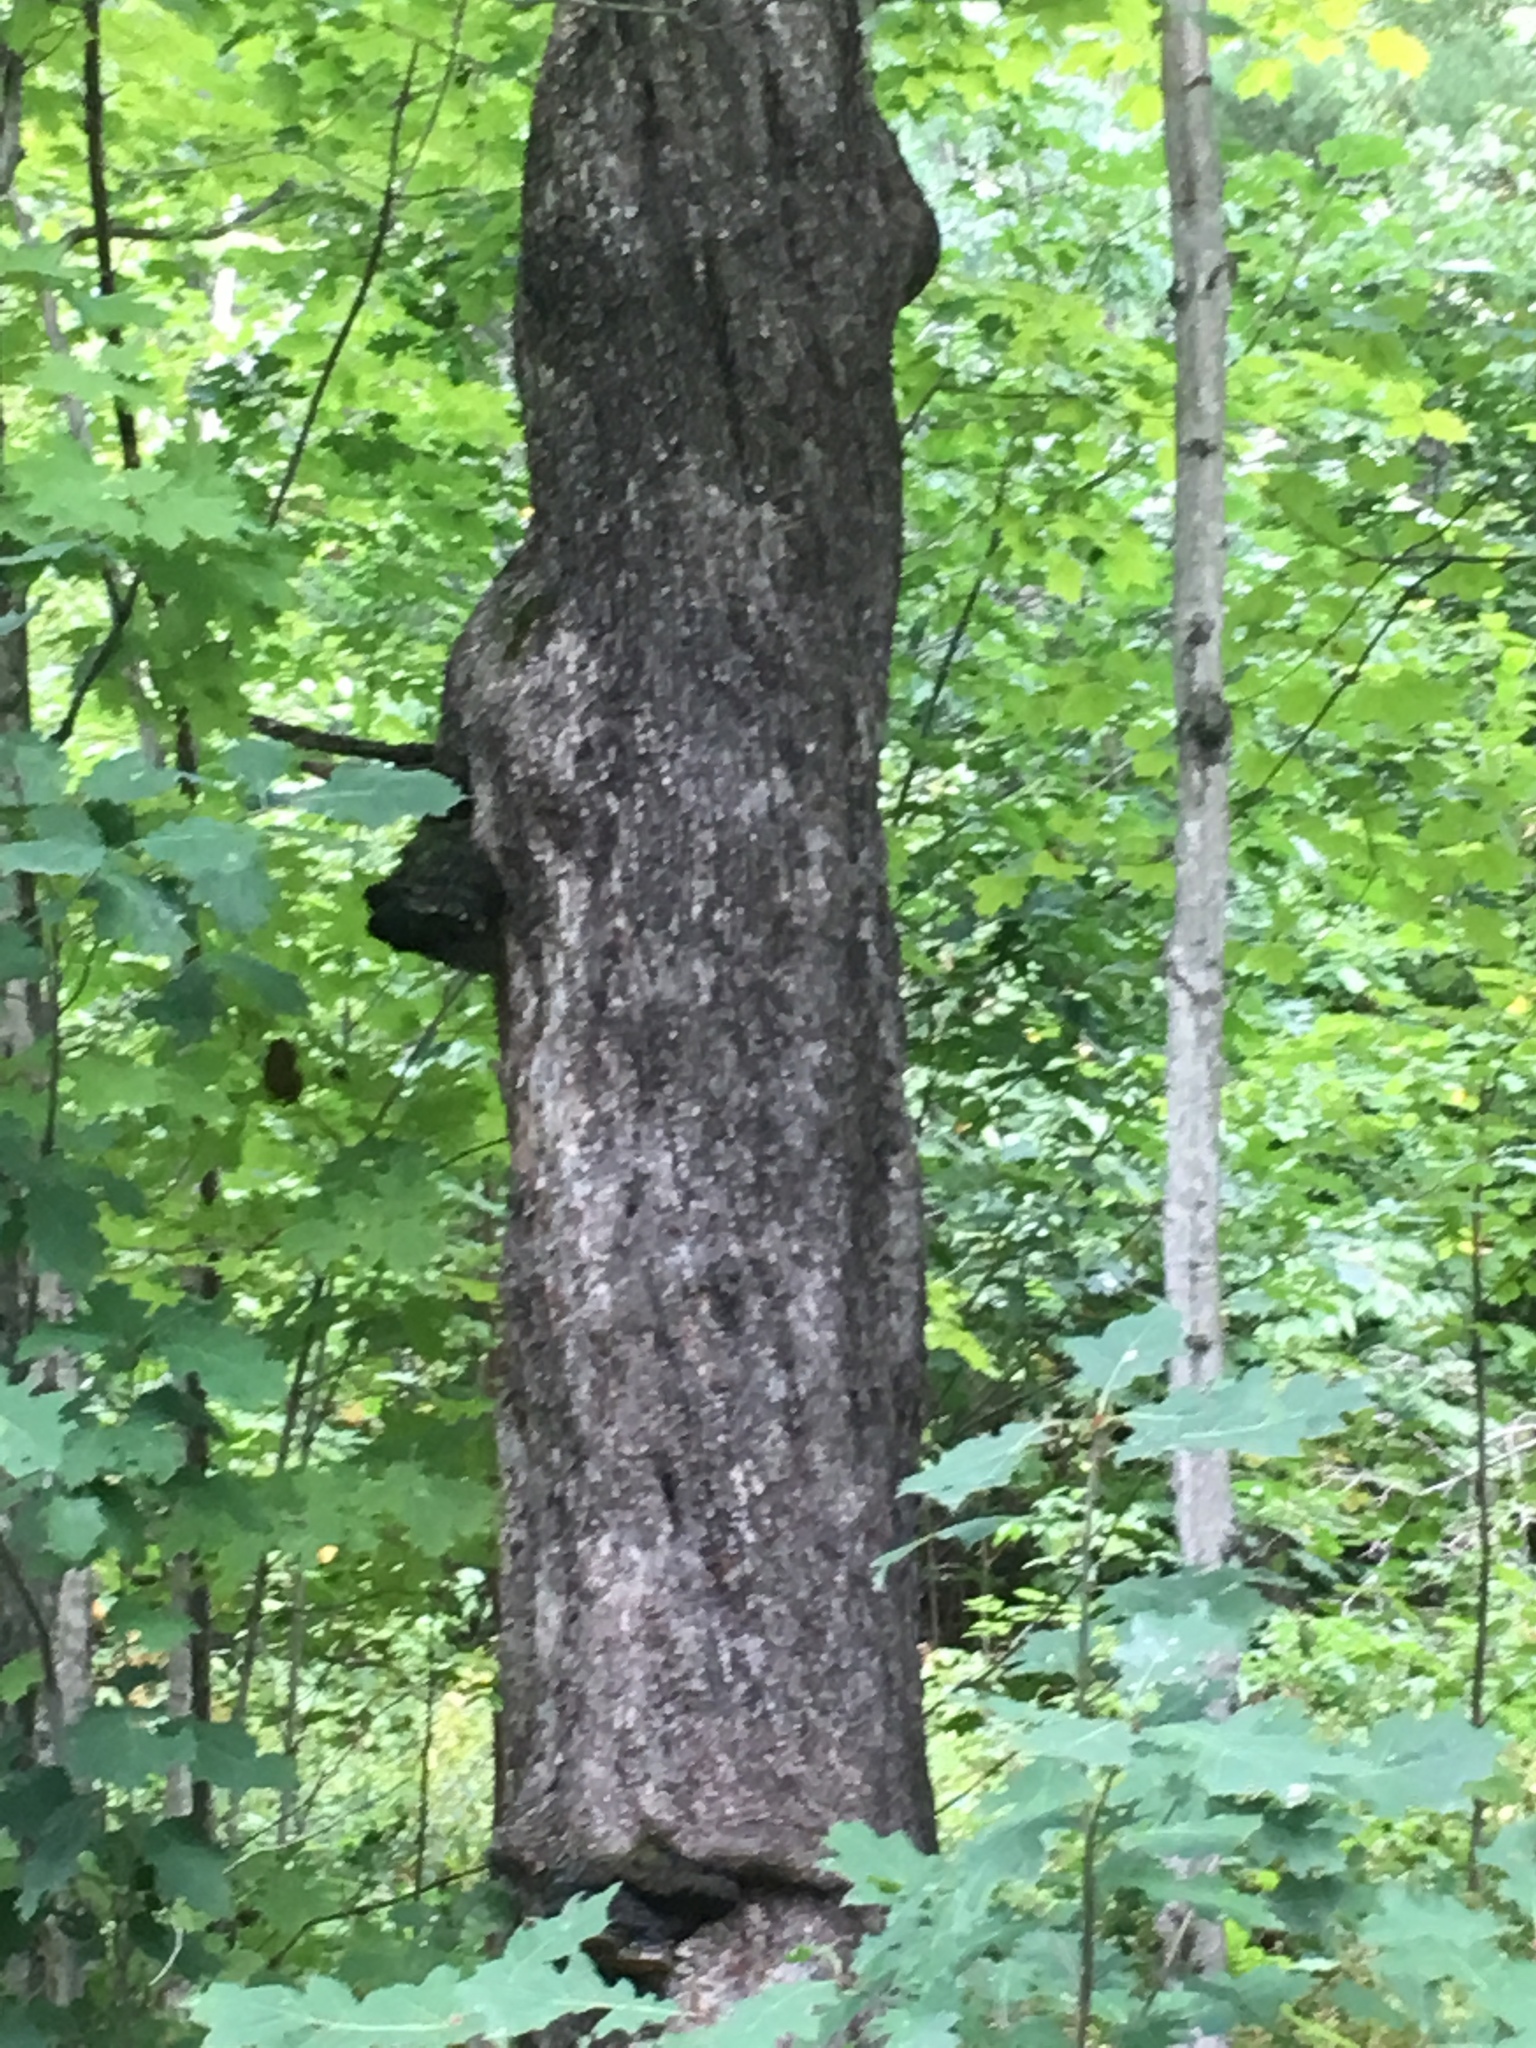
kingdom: Plantae
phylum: Tracheophyta
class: Magnoliopsida
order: Fagales
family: Betulaceae
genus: Ostrya
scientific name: Ostrya virginiana
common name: Ironwood
